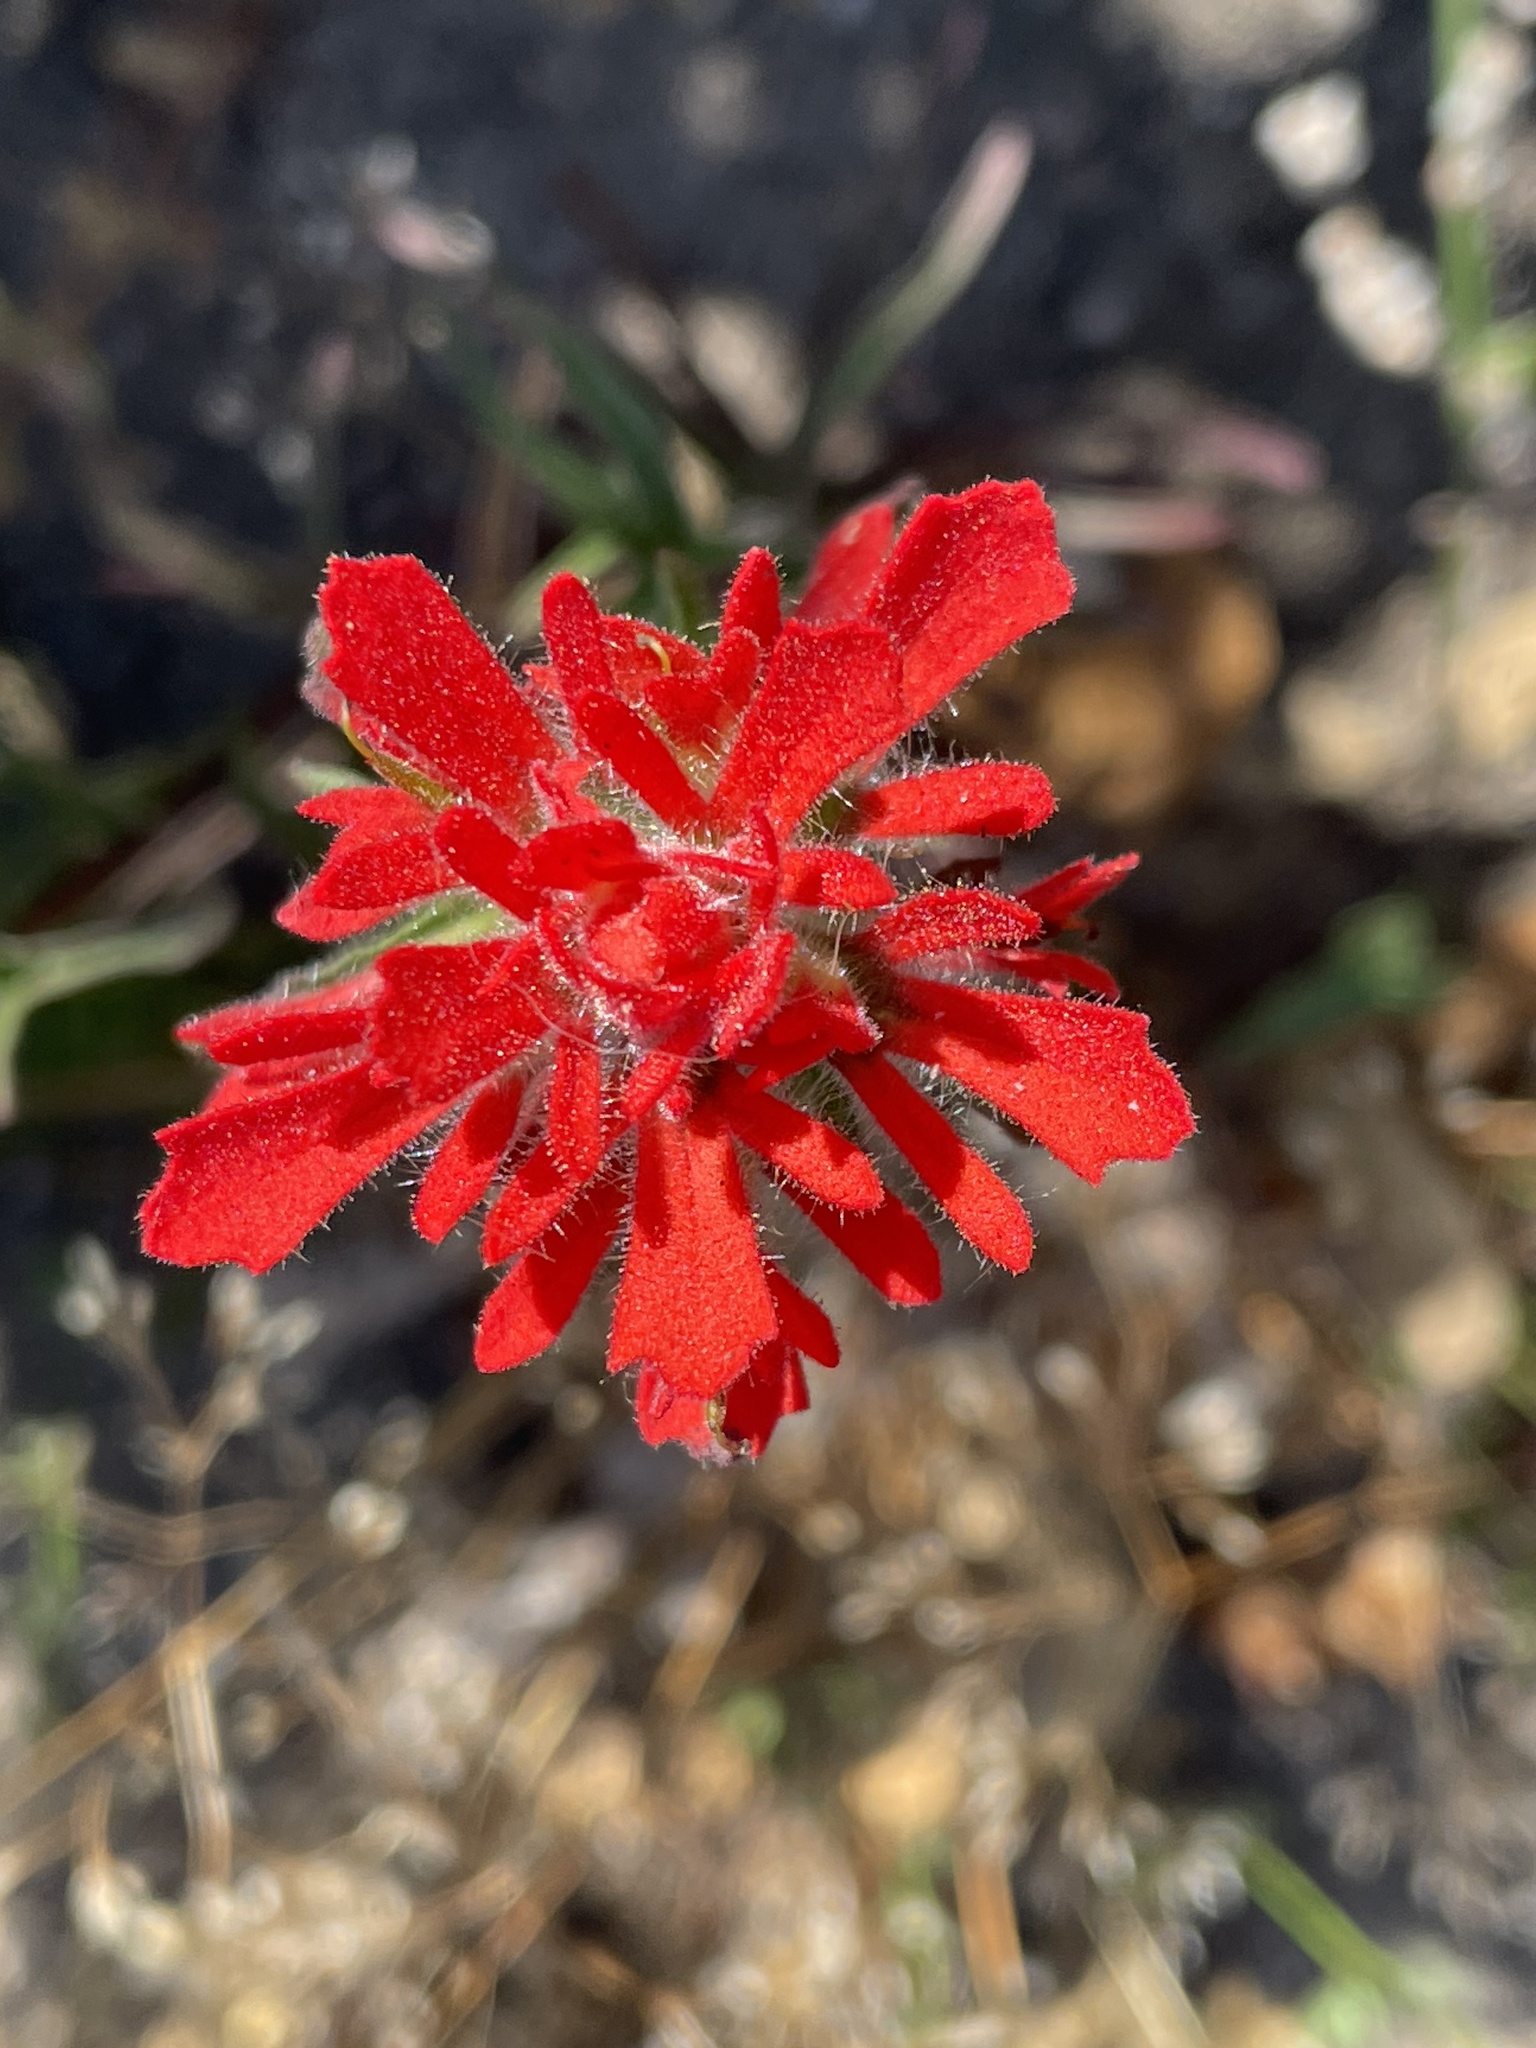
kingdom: Plantae
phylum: Tracheophyta
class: Magnoliopsida
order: Lamiales
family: Orobanchaceae
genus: Castilleja
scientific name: Castilleja affinis
